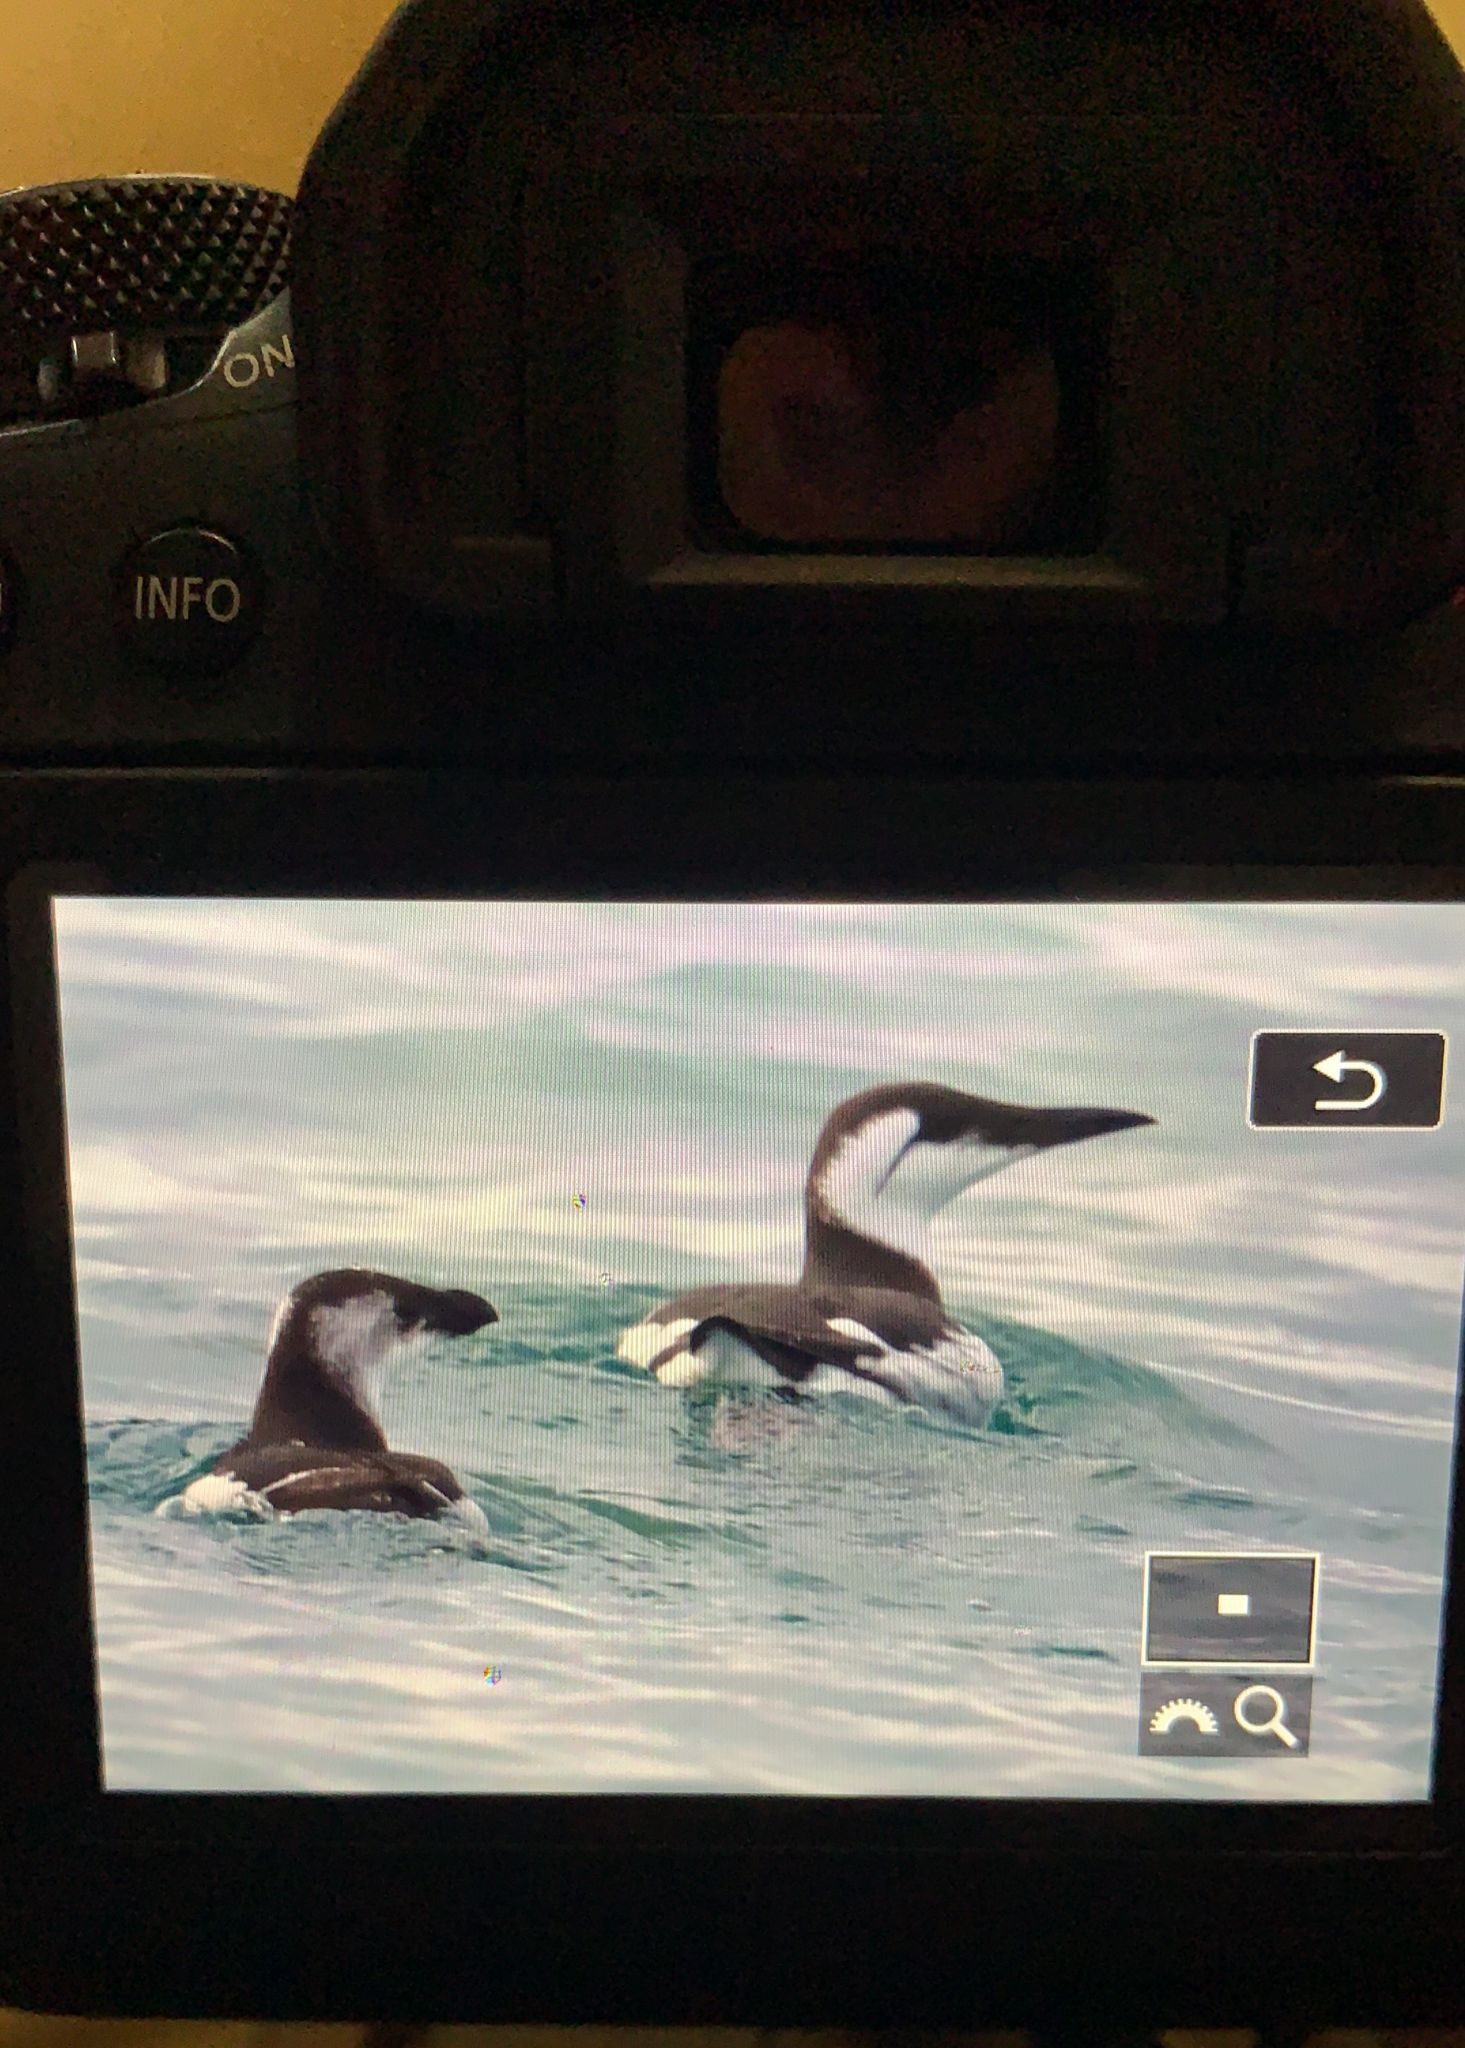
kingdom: Animalia
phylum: Chordata
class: Aves
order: Charadriiformes
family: Alcidae
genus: Alca
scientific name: Alca torda
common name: Razorbill
